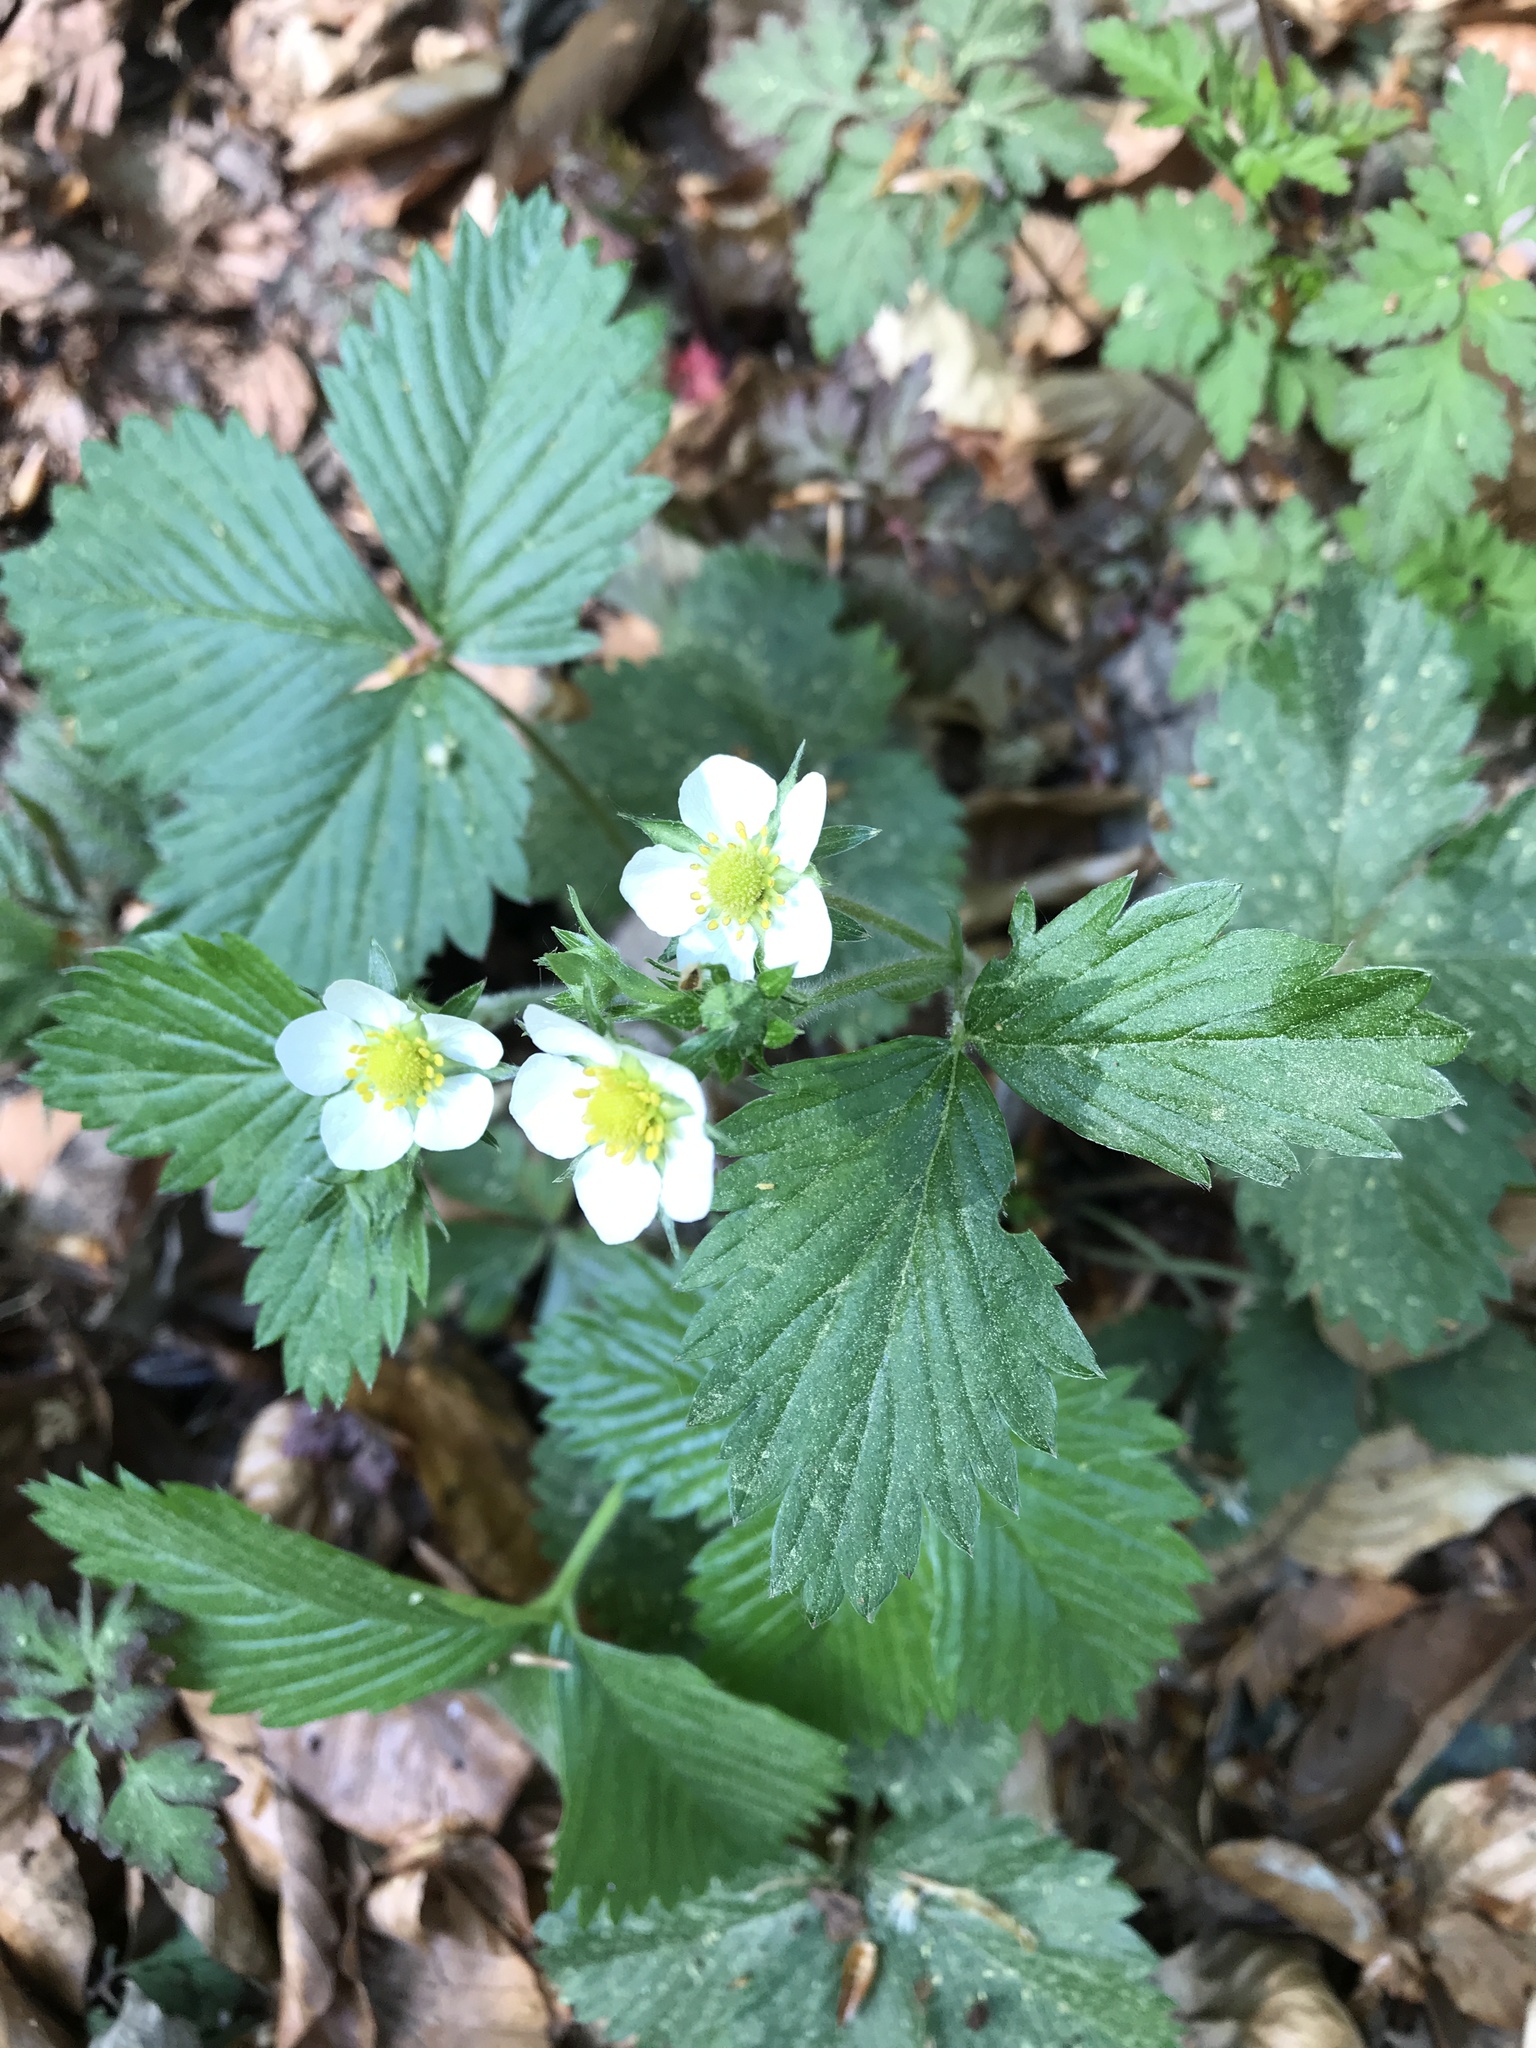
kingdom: Plantae
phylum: Tracheophyta
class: Magnoliopsida
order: Rosales
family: Rosaceae
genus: Fragaria
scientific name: Fragaria vesca
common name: Wild strawberry
